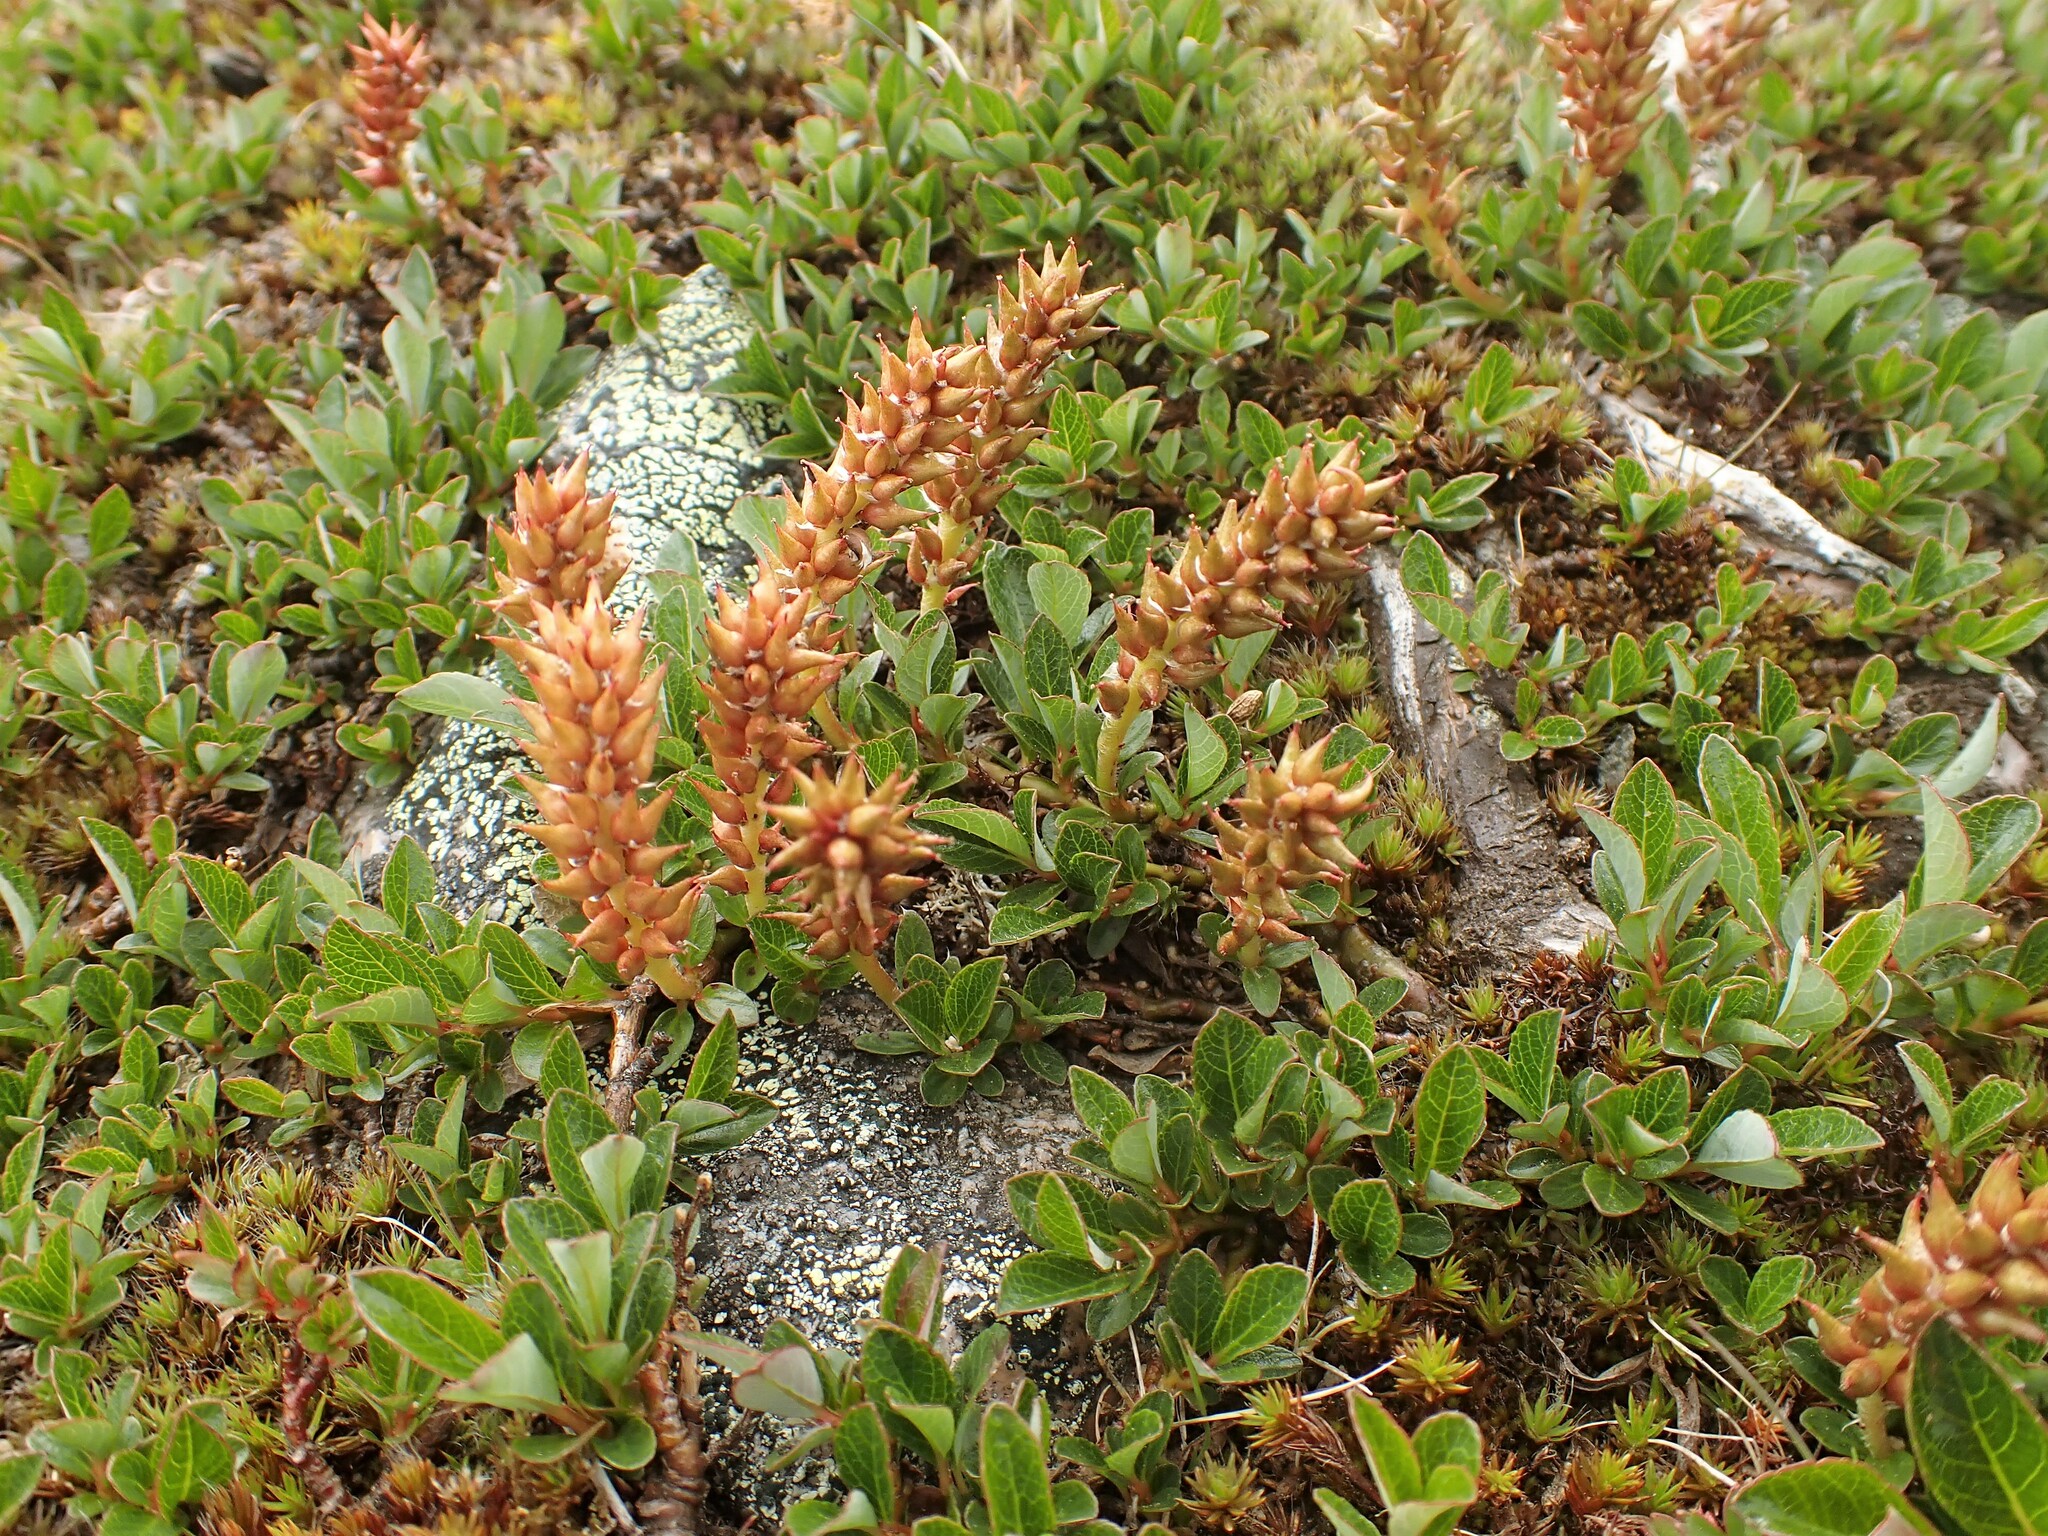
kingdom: Plantae
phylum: Tracheophyta
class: Magnoliopsida
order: Malpighiales
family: Salicaceae
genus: Salix
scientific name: Salix uva-ursi
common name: Bearberry willow
